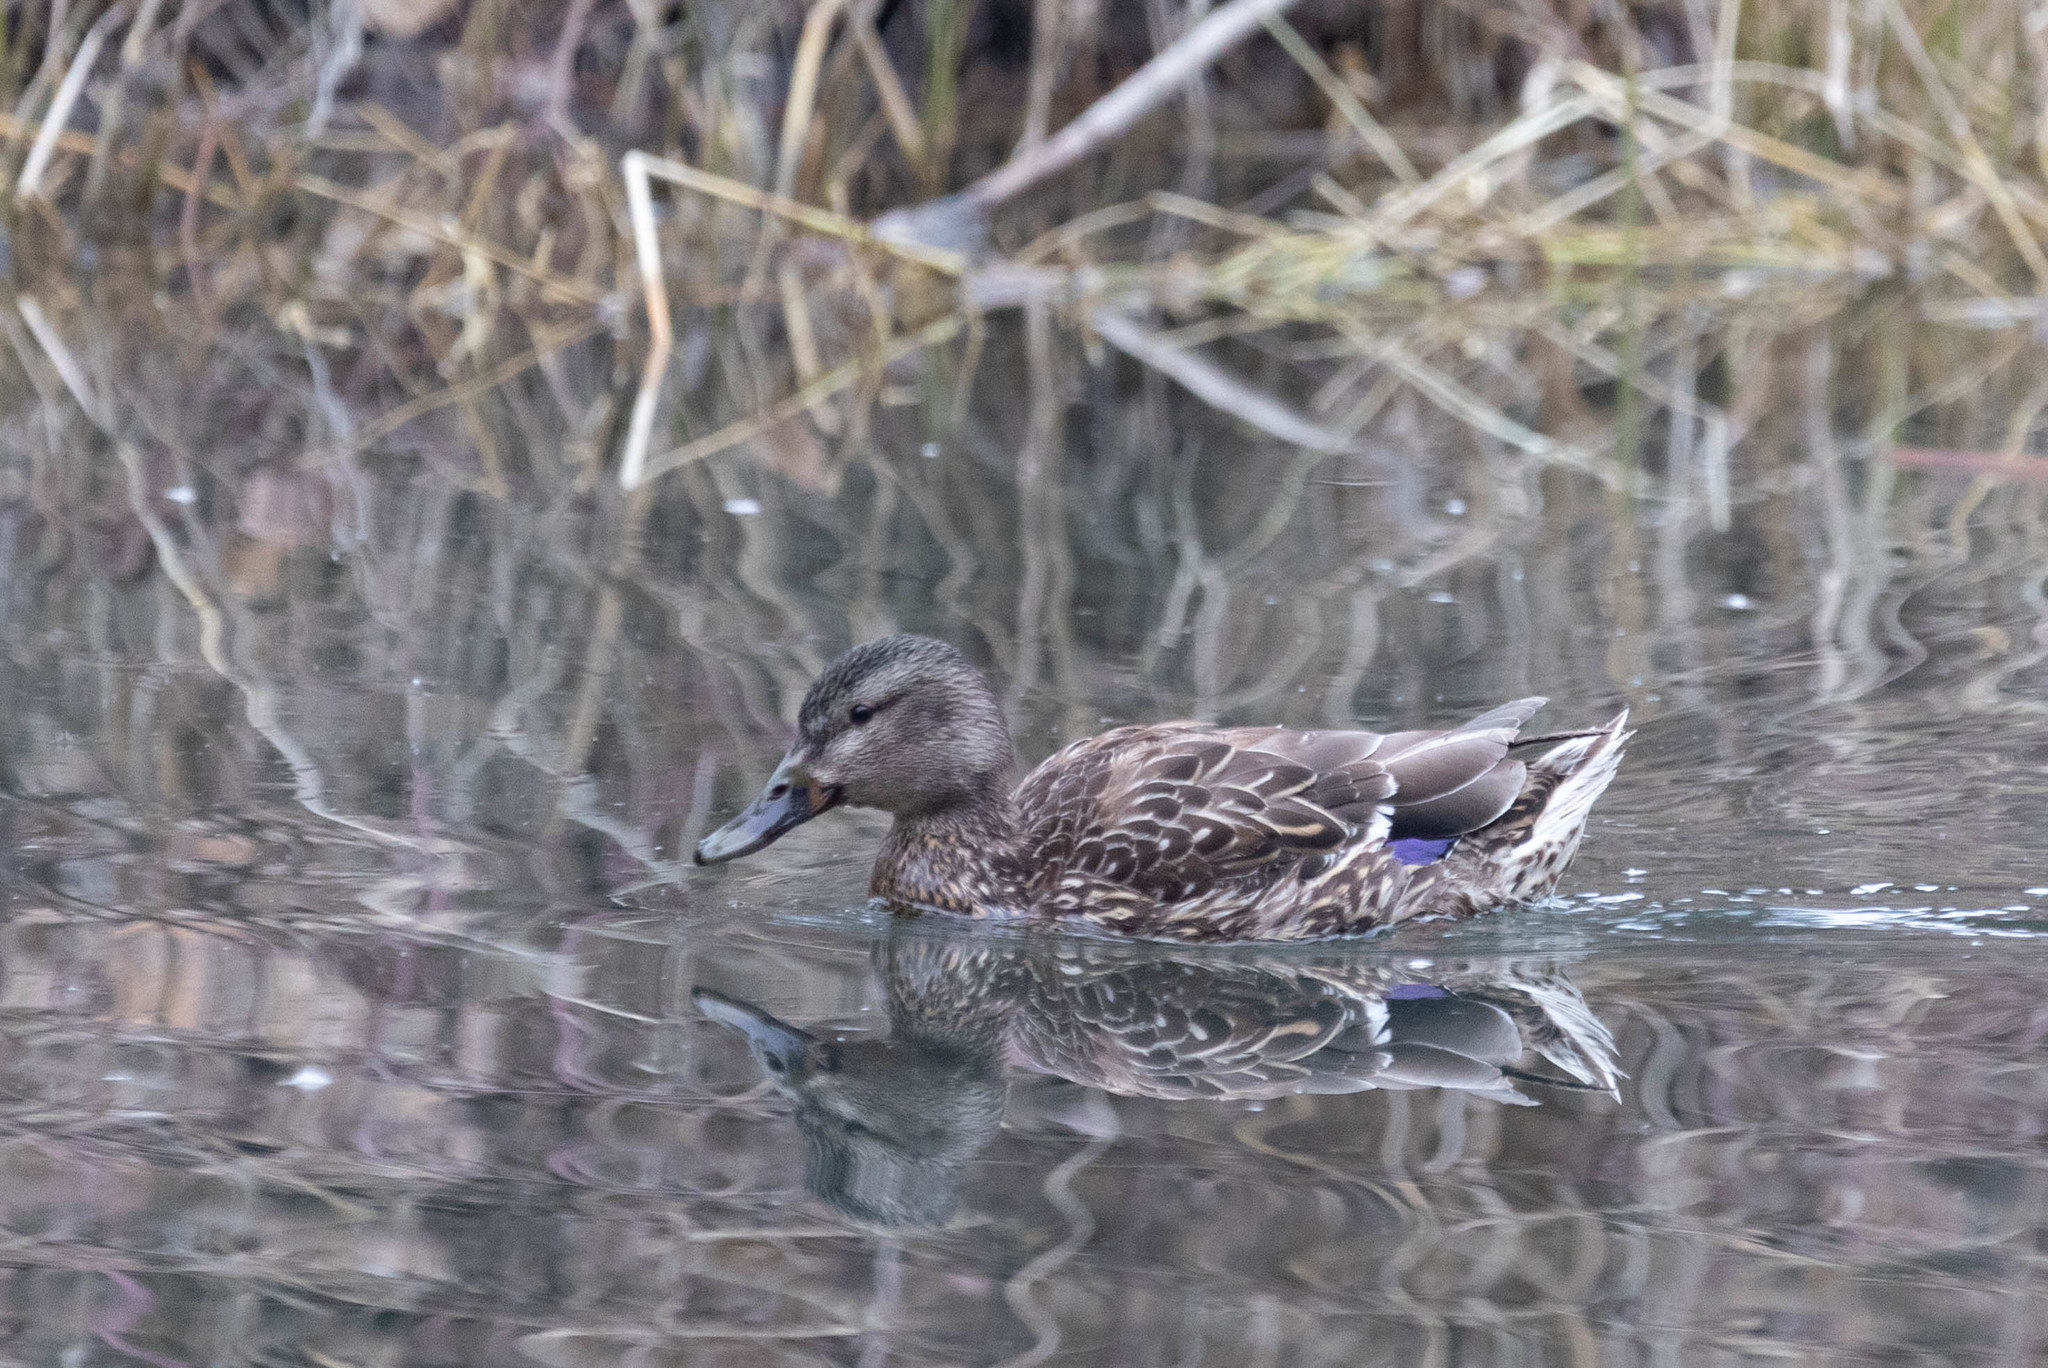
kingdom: Animalia
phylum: Chordata
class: Aves
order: Anseriformes
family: Anatidae
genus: Anas
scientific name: Anas platyrhynchos
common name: Mallard
